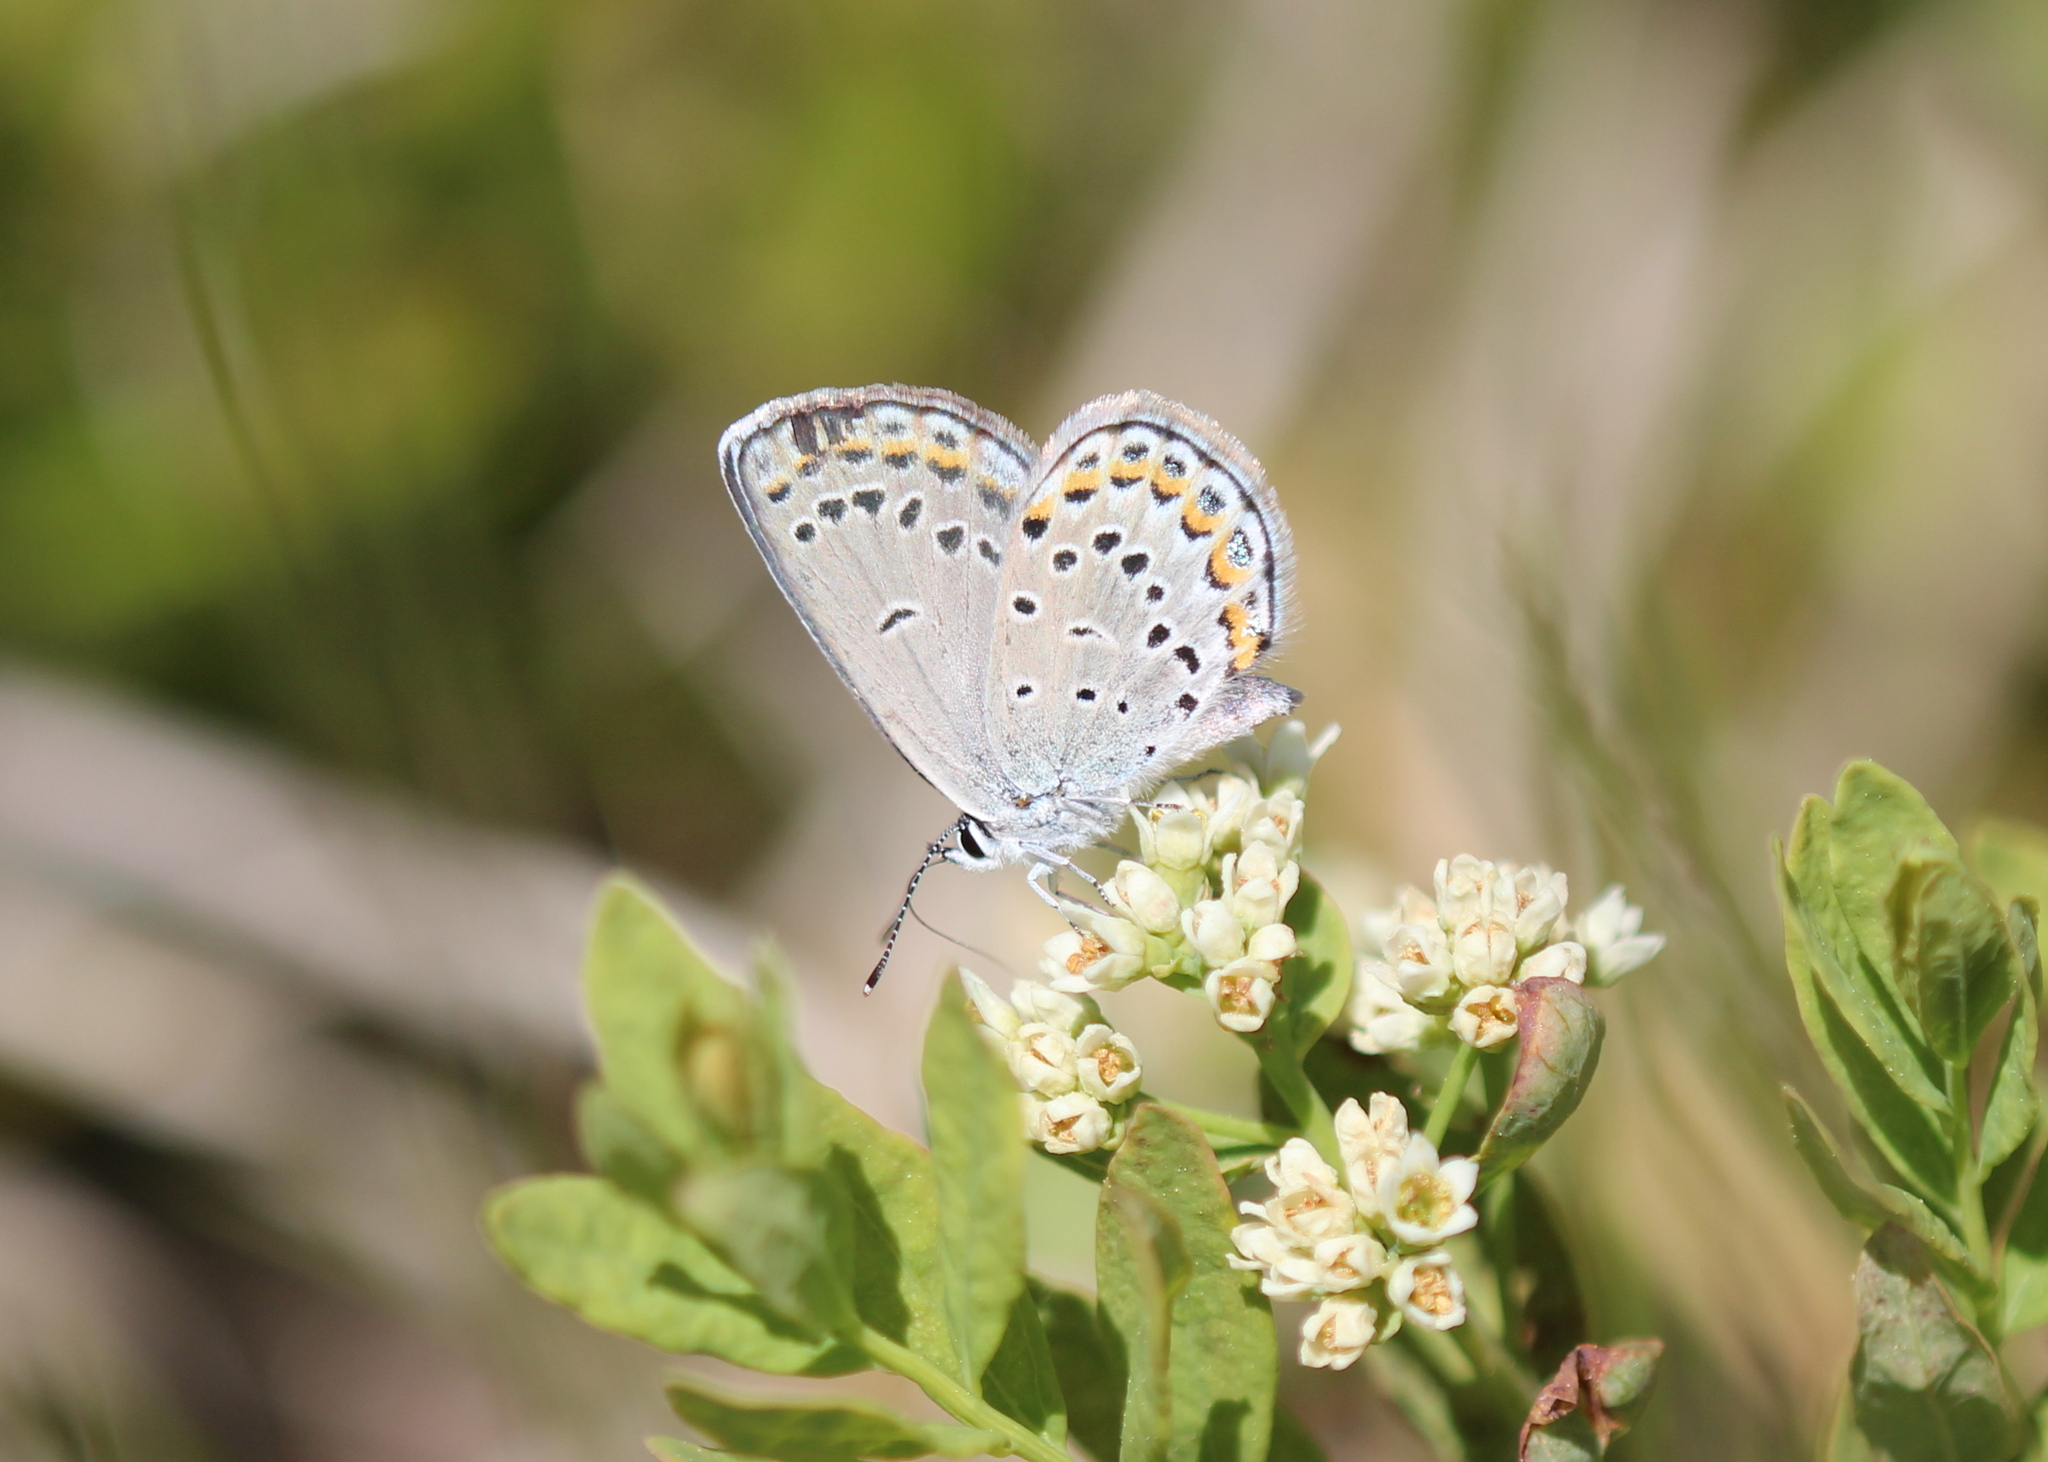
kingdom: Animalia
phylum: Arthropoda
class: Insecta
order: Lepidoptera
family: Lycaenidae
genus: Plebejus
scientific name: Plebejus samuelis
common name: Karner blue
